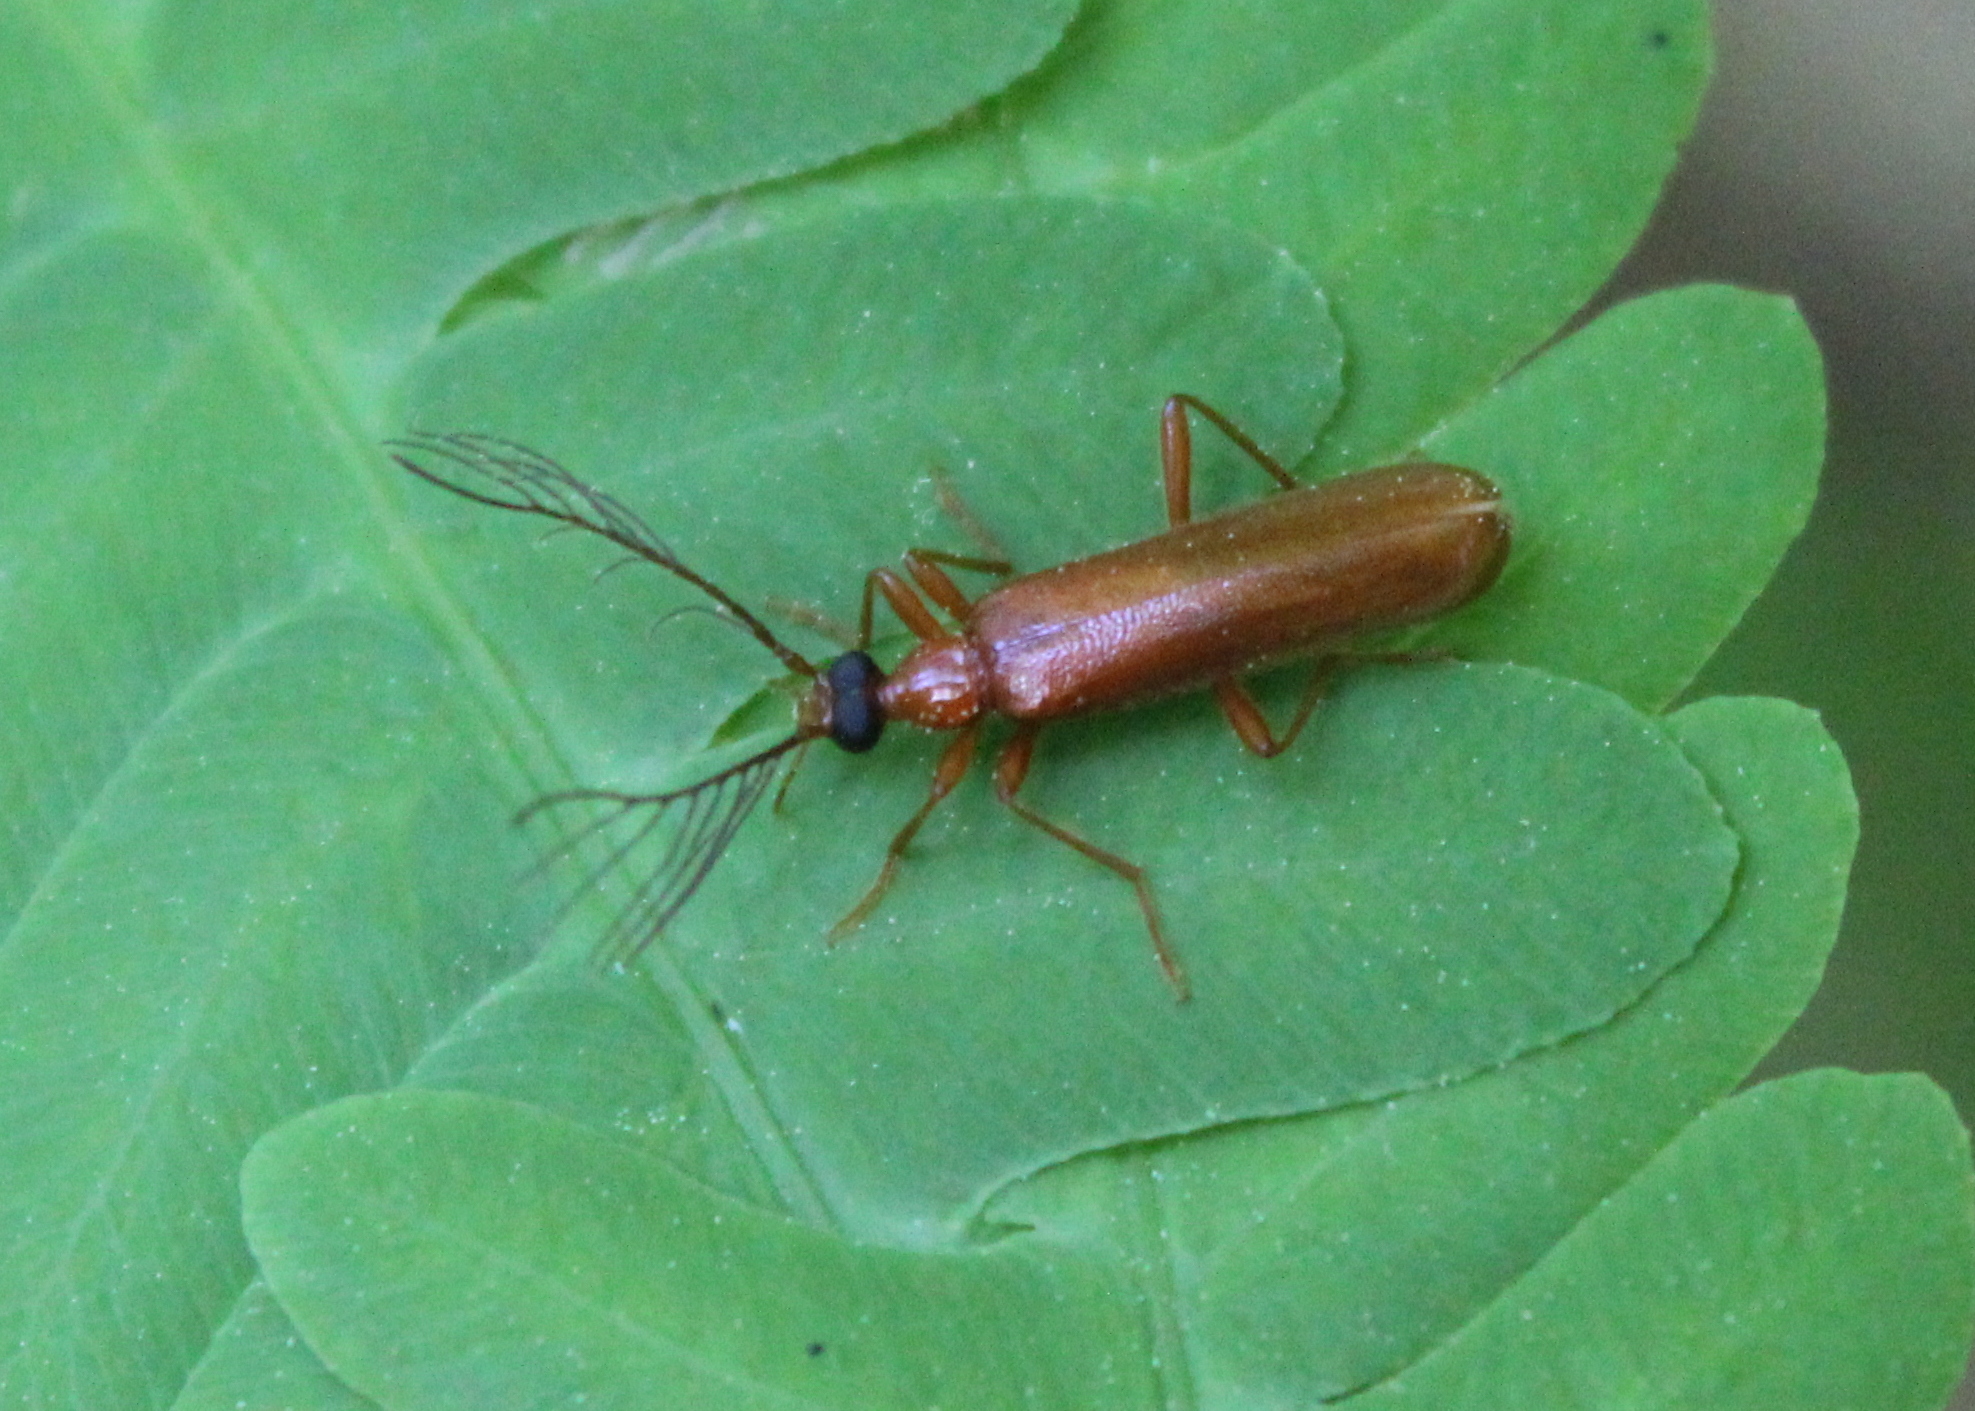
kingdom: Animalia
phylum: Arthropoda
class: Insecta
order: Coleoptera
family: Pyrochroidae
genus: Dendroides
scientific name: Dendroides concolor
